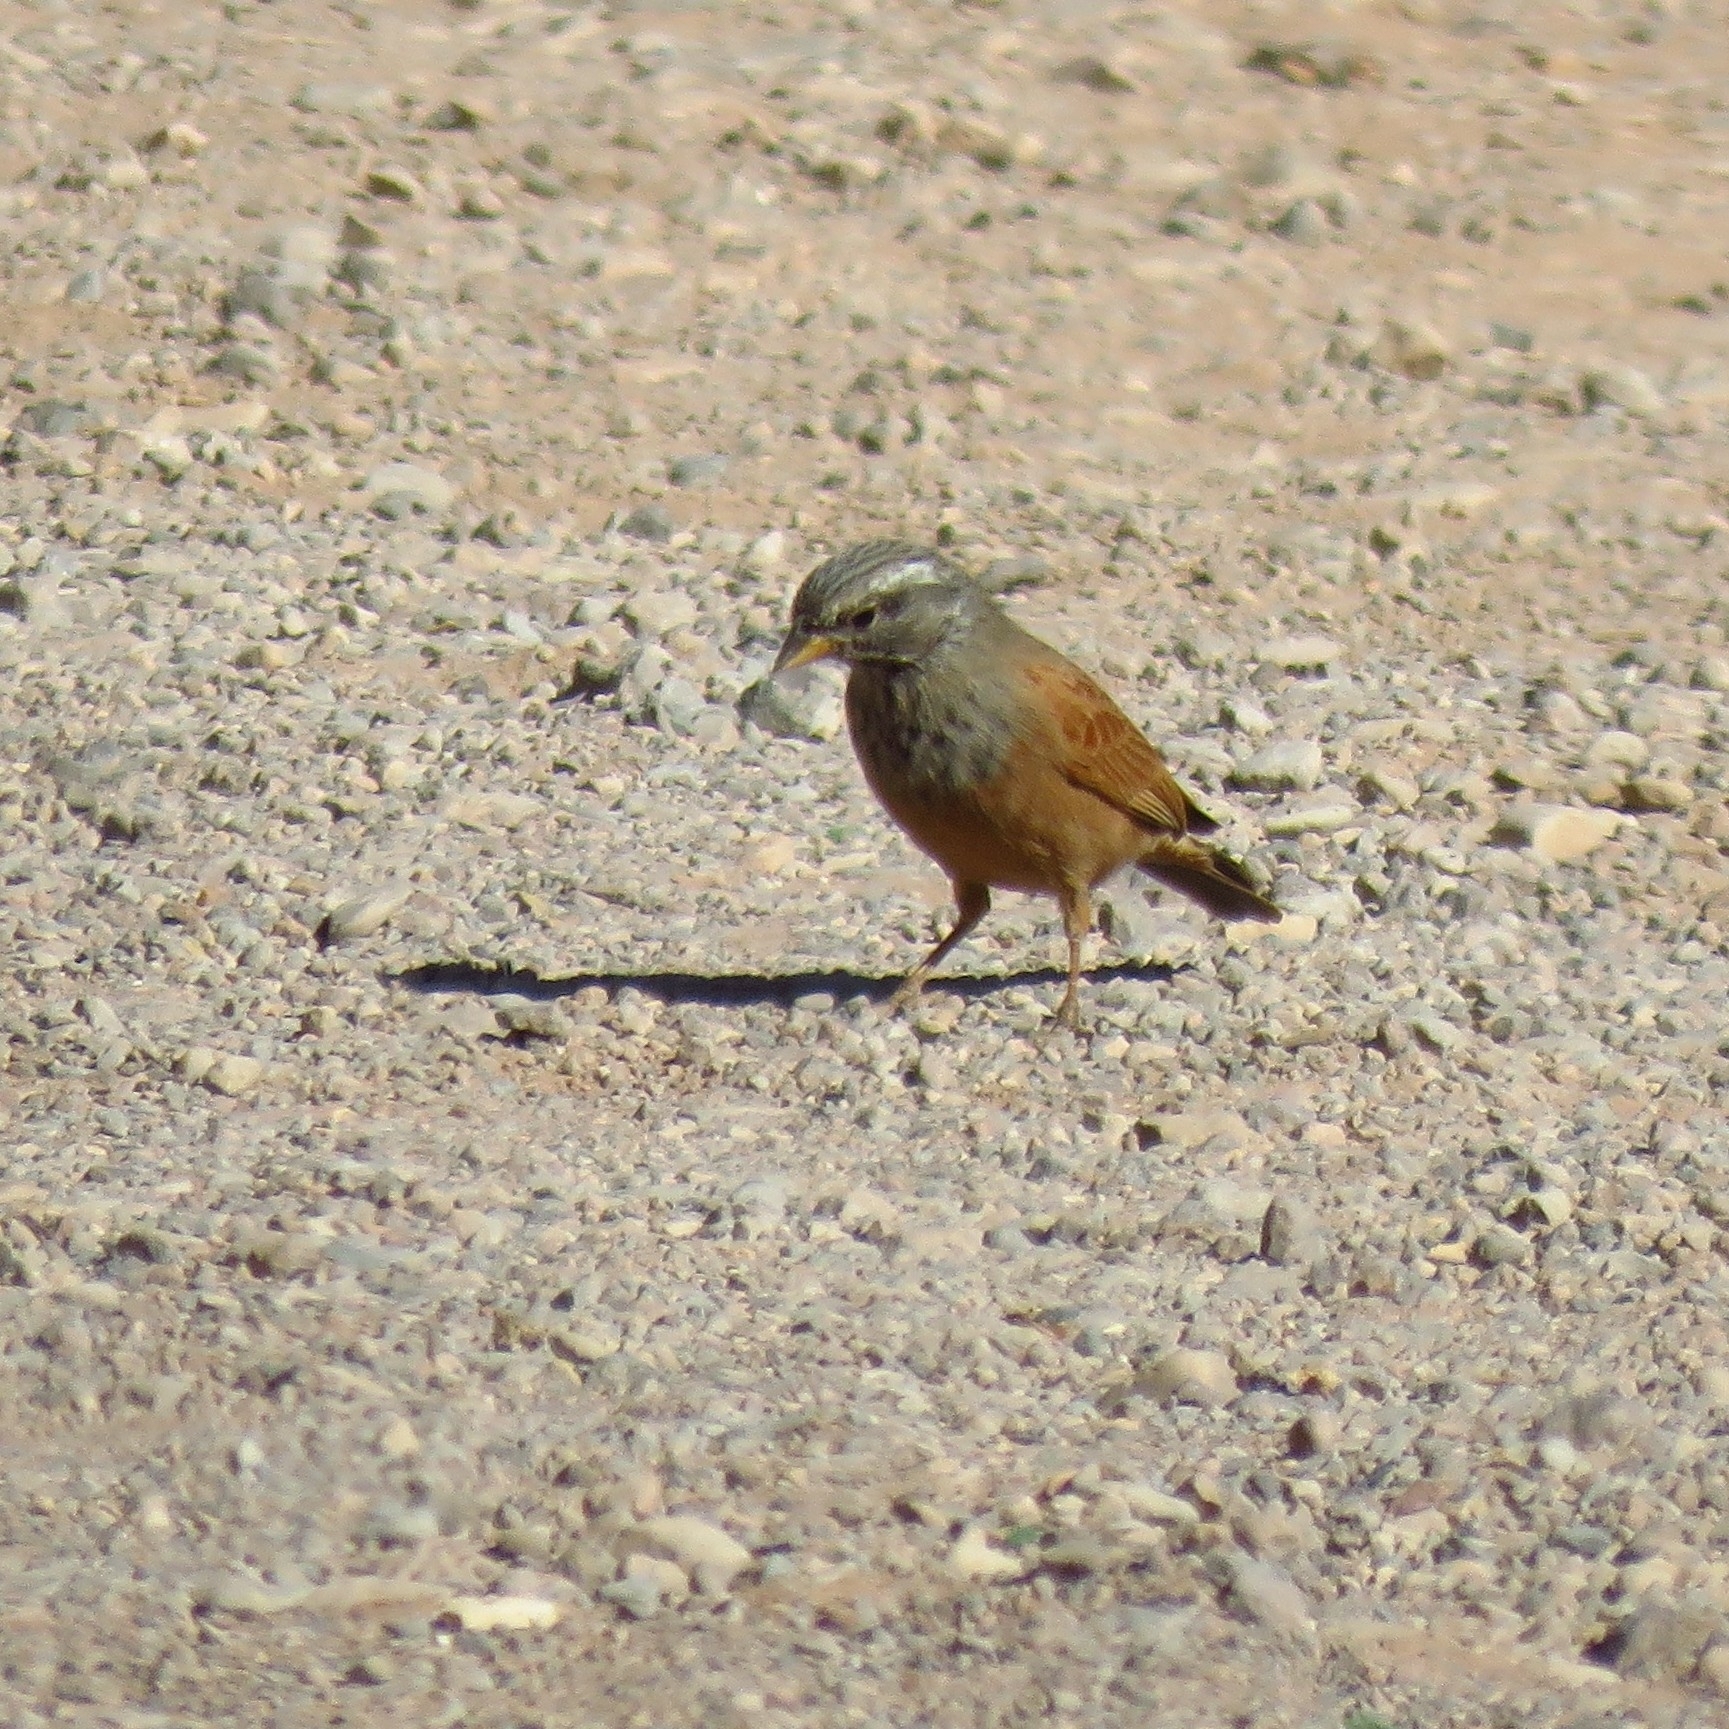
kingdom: Animalia
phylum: Chordata
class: Aves
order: Passeriformes
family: Emberizidae
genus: Emberiza
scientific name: Emberiza sahari
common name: House bunting
